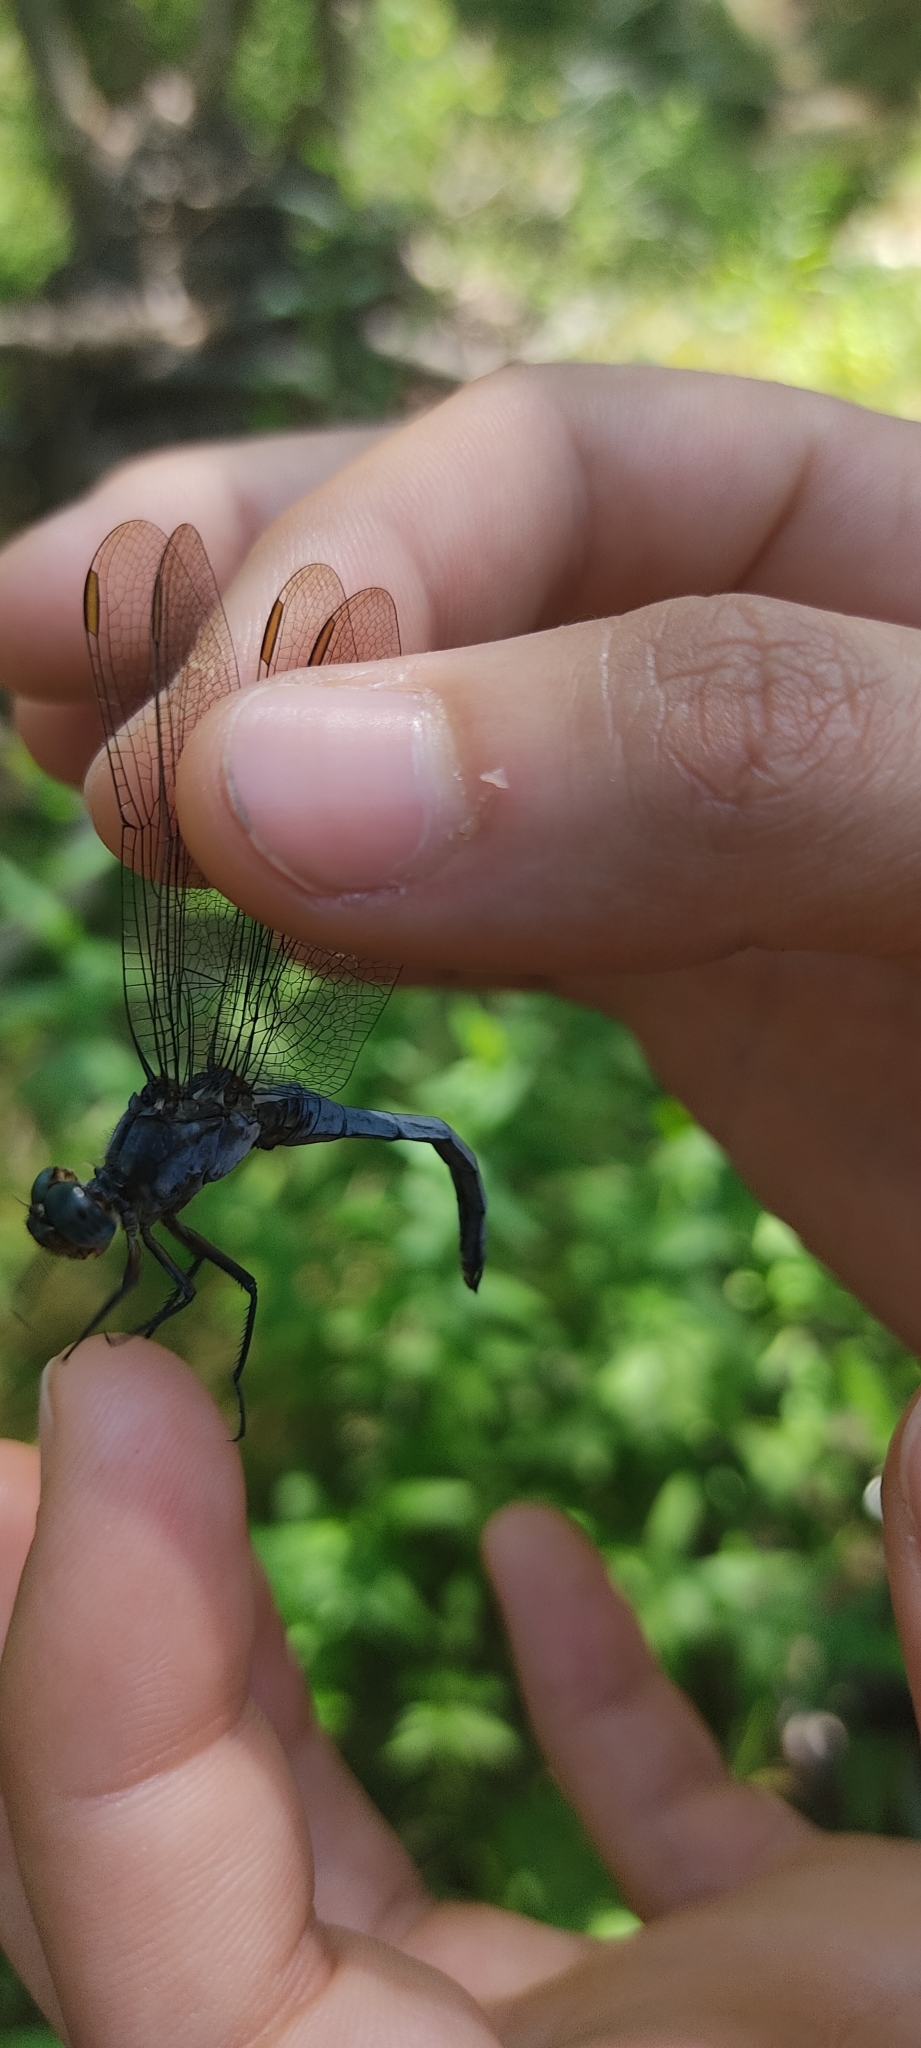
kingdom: Animalia
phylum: Arthropoda
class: Insecta
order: Odonata
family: Libellulidae
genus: Orthetrum
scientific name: Orthetrum coerulescens
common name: Keeled skimmer
